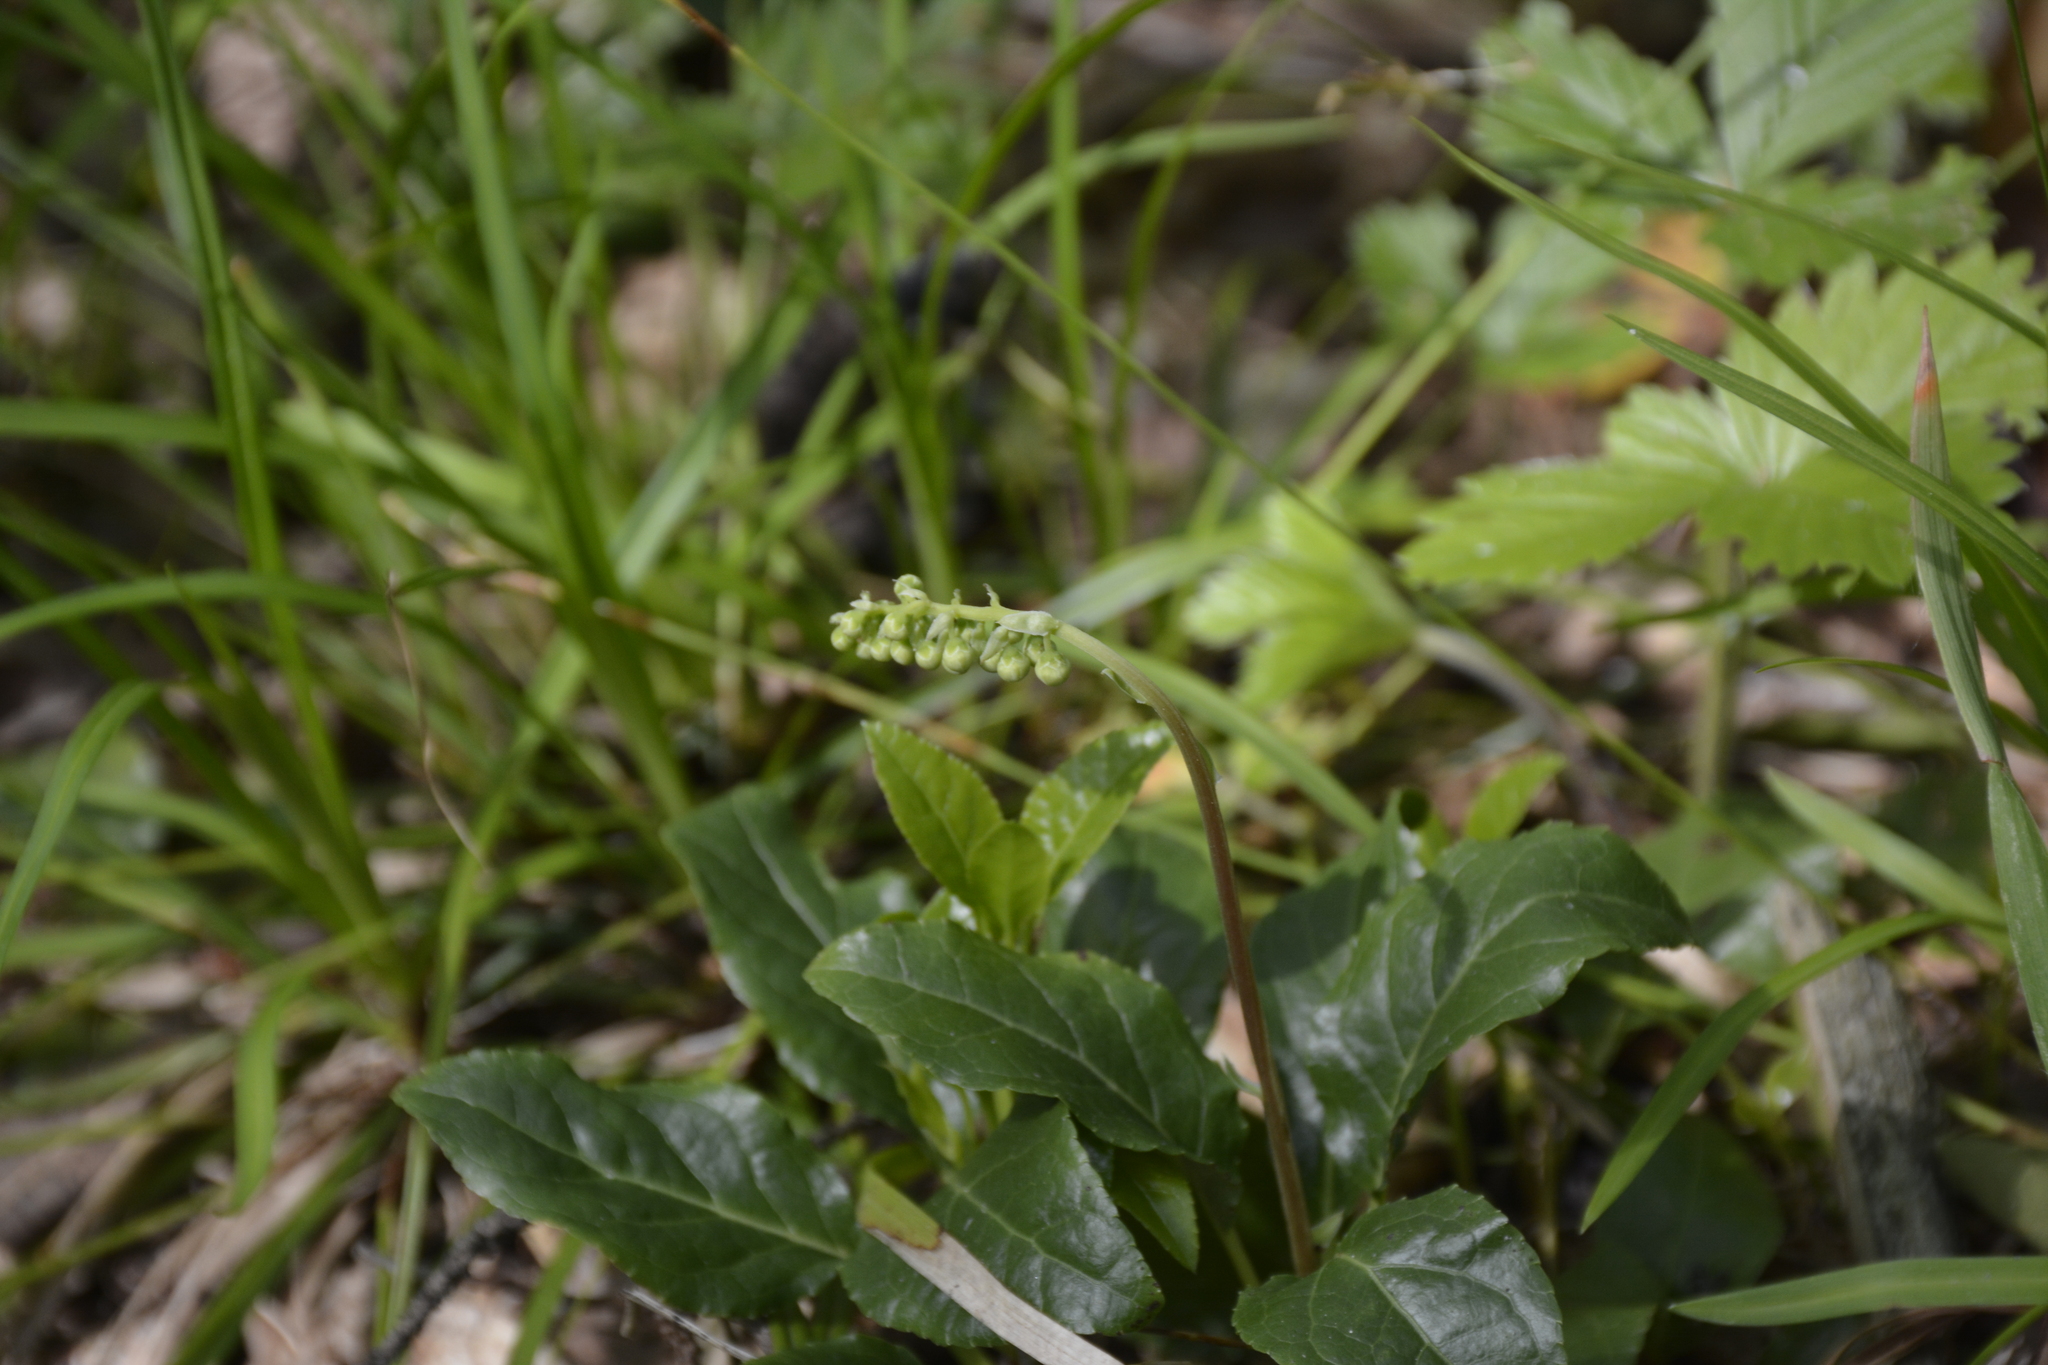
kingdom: Plantae
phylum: Tracheophyta
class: Magnoliopsida
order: Ericales
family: Ericaceae
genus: Orthilia
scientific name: Orthilia secunda
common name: One-sided orthilia
